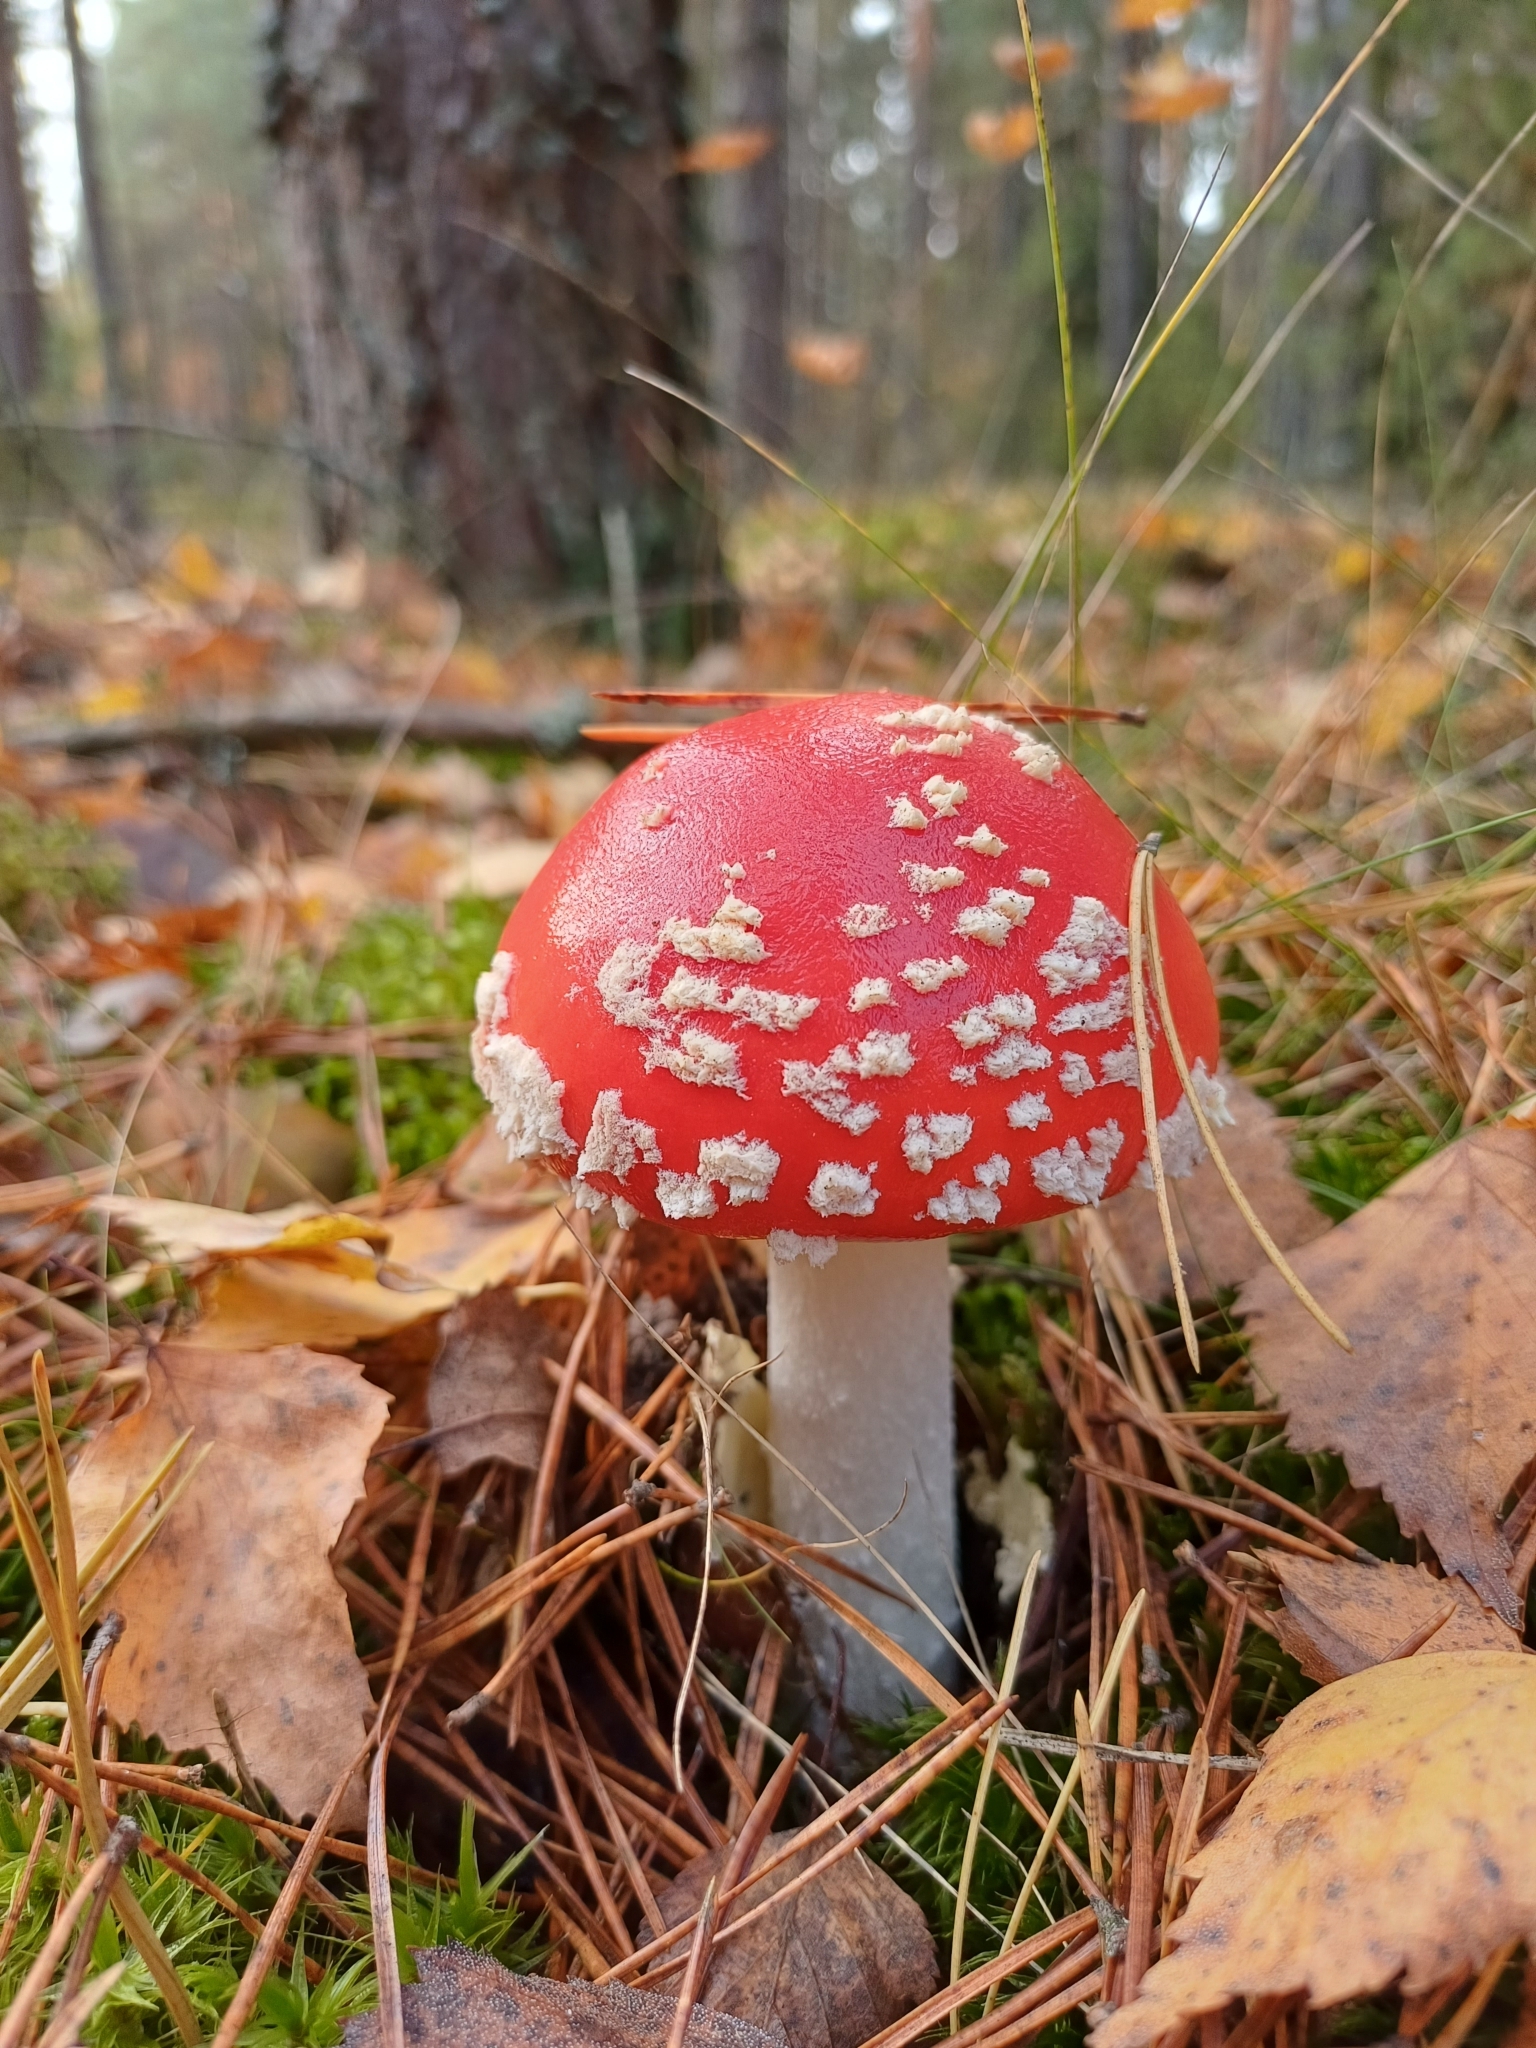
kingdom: Fungi
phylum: Basidiomycota
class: Agaricomycetes
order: Agaricales
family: Amanitaceae
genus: Amanita
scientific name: Amanita muscaria
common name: Fly agaric
